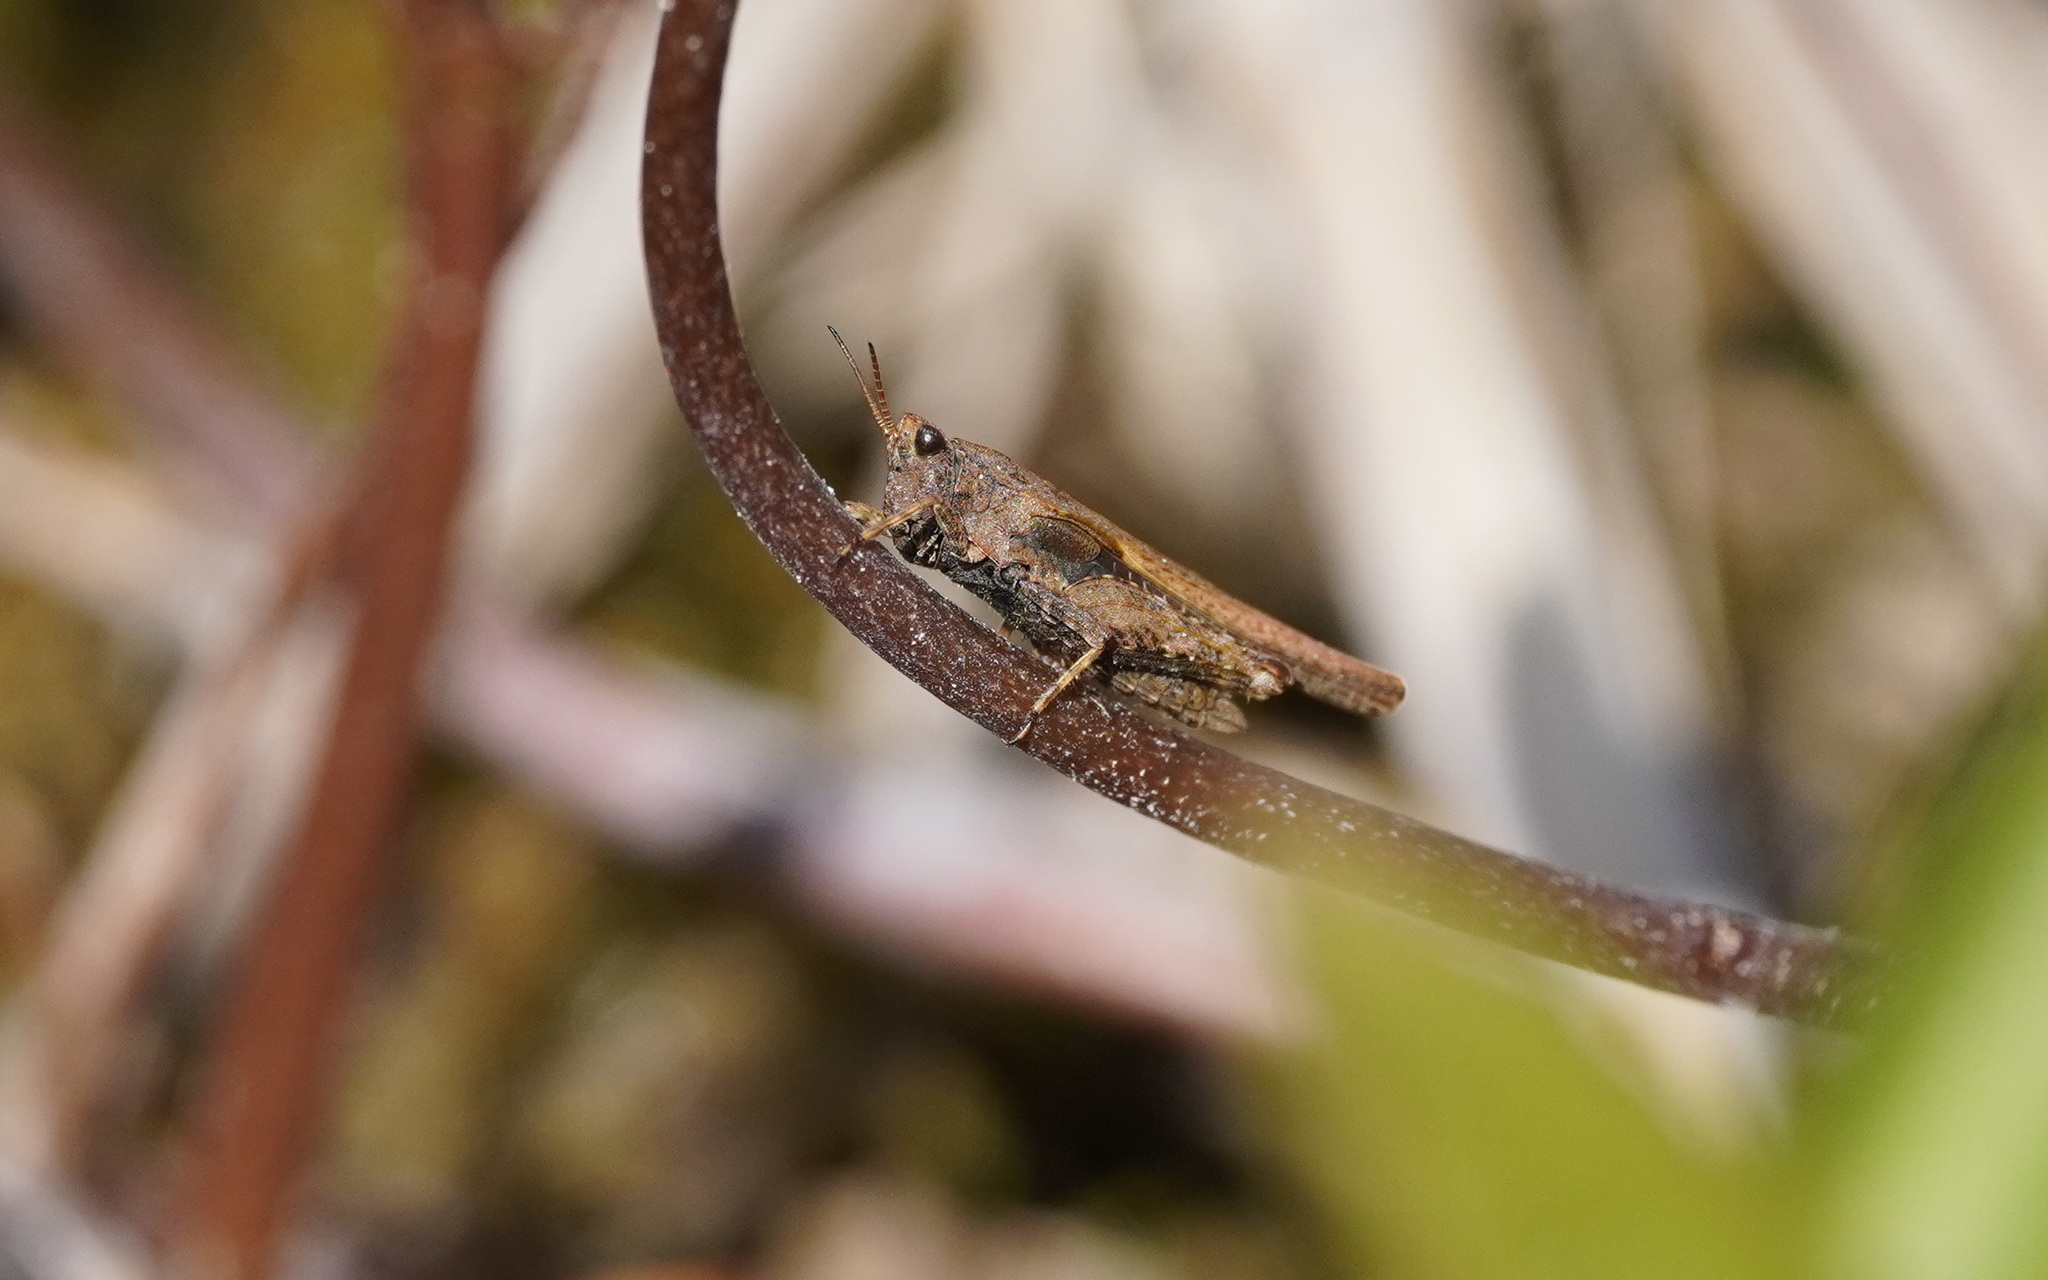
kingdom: Animalia
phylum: Arthropoda
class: Insecta
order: Orthoptera
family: Tetrigidae
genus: Tetrix
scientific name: Tetrix subulata
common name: Slender ground-hopper
